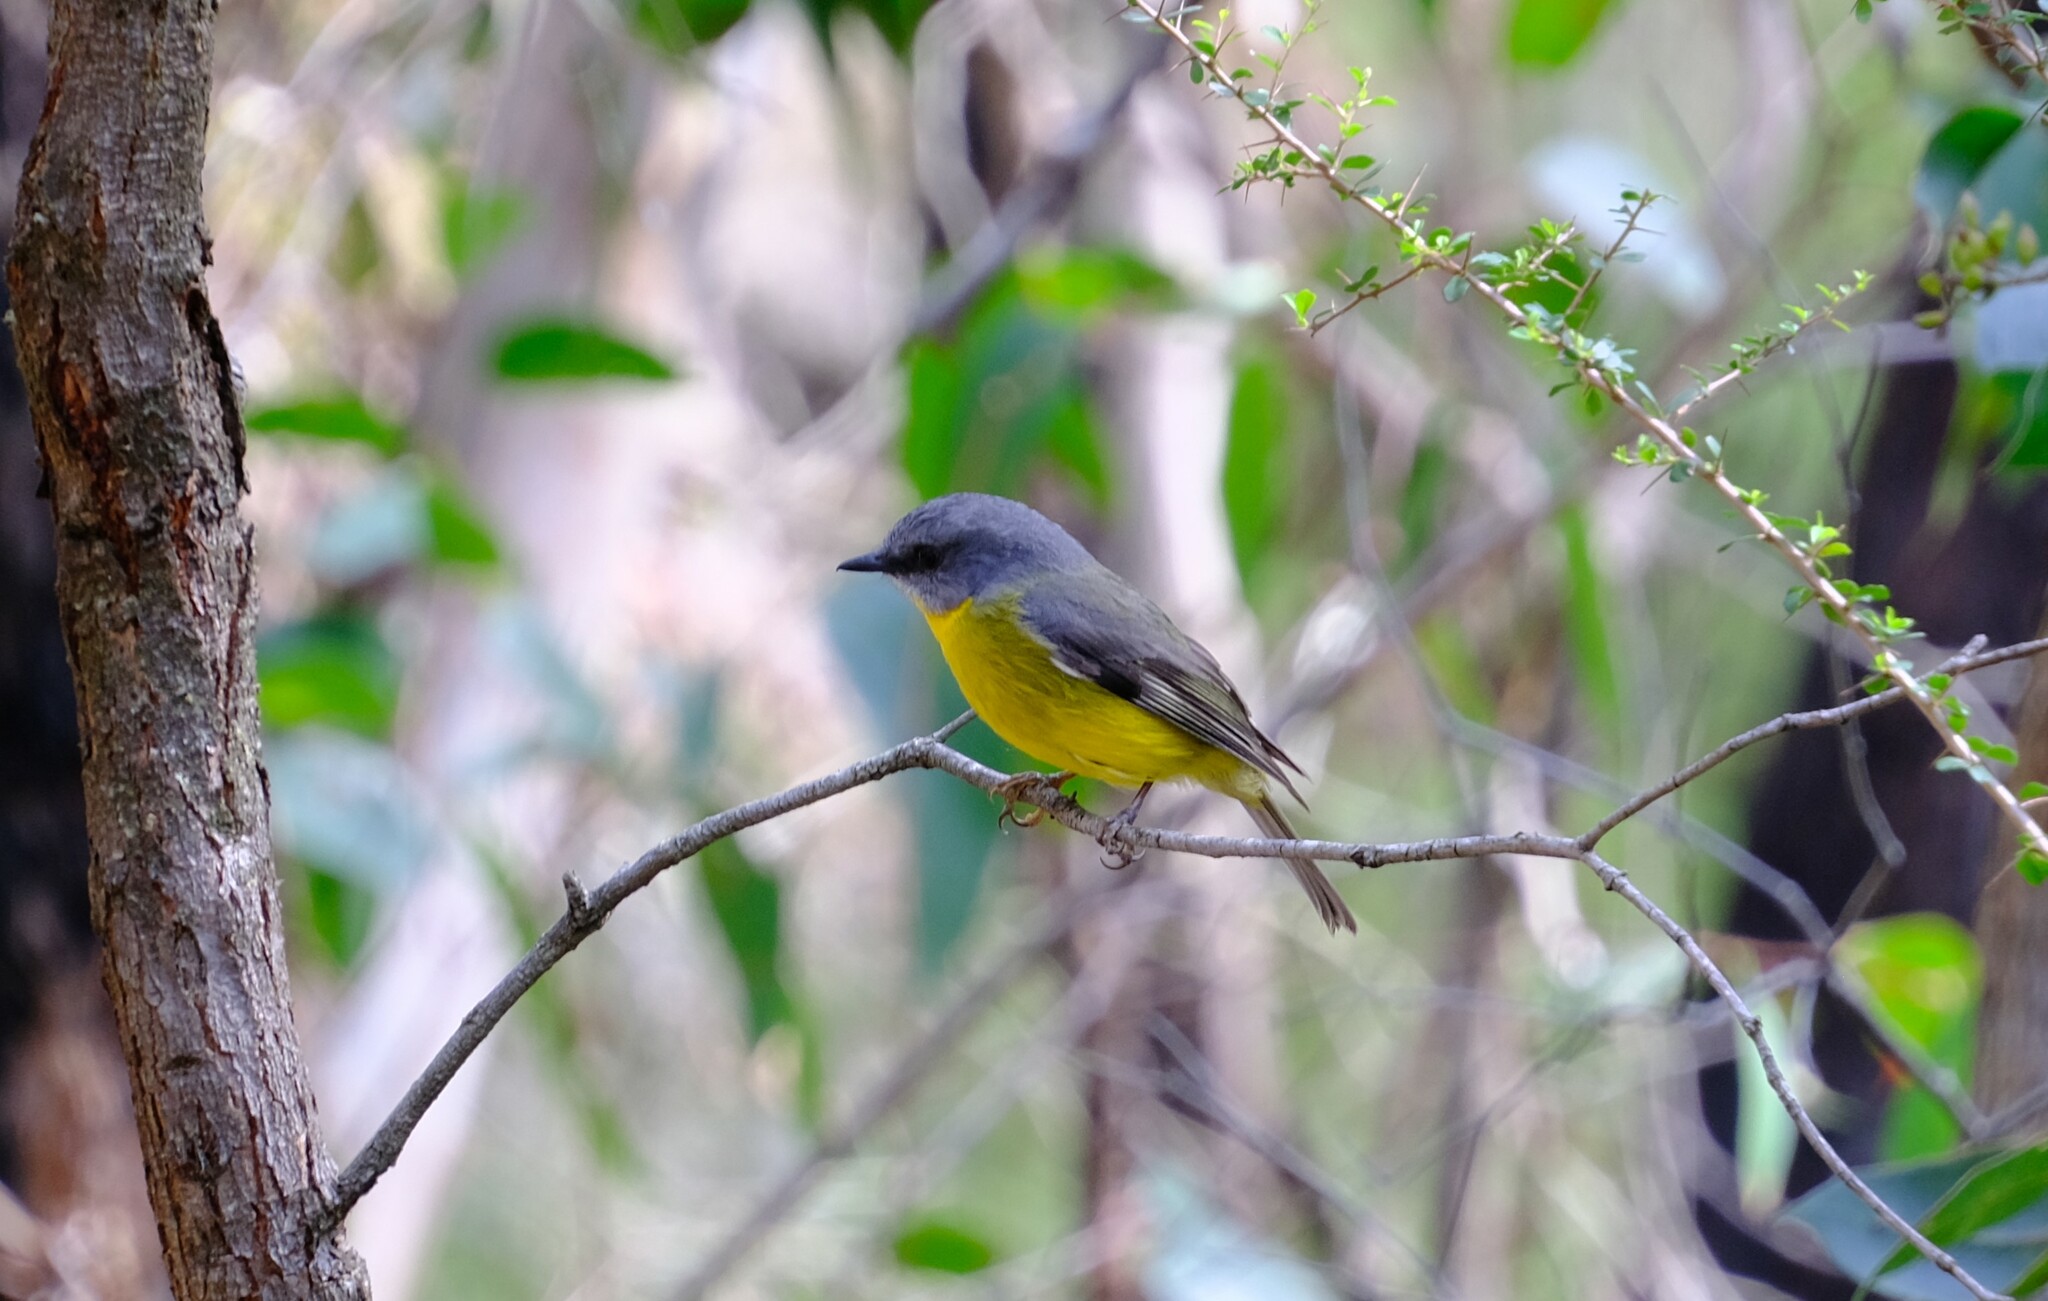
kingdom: Animalia
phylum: Chordata
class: Aves
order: Passeriformes
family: Petroicidae
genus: Eopsaltria
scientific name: Eopsaltria australis
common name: Eastern yellow robin
